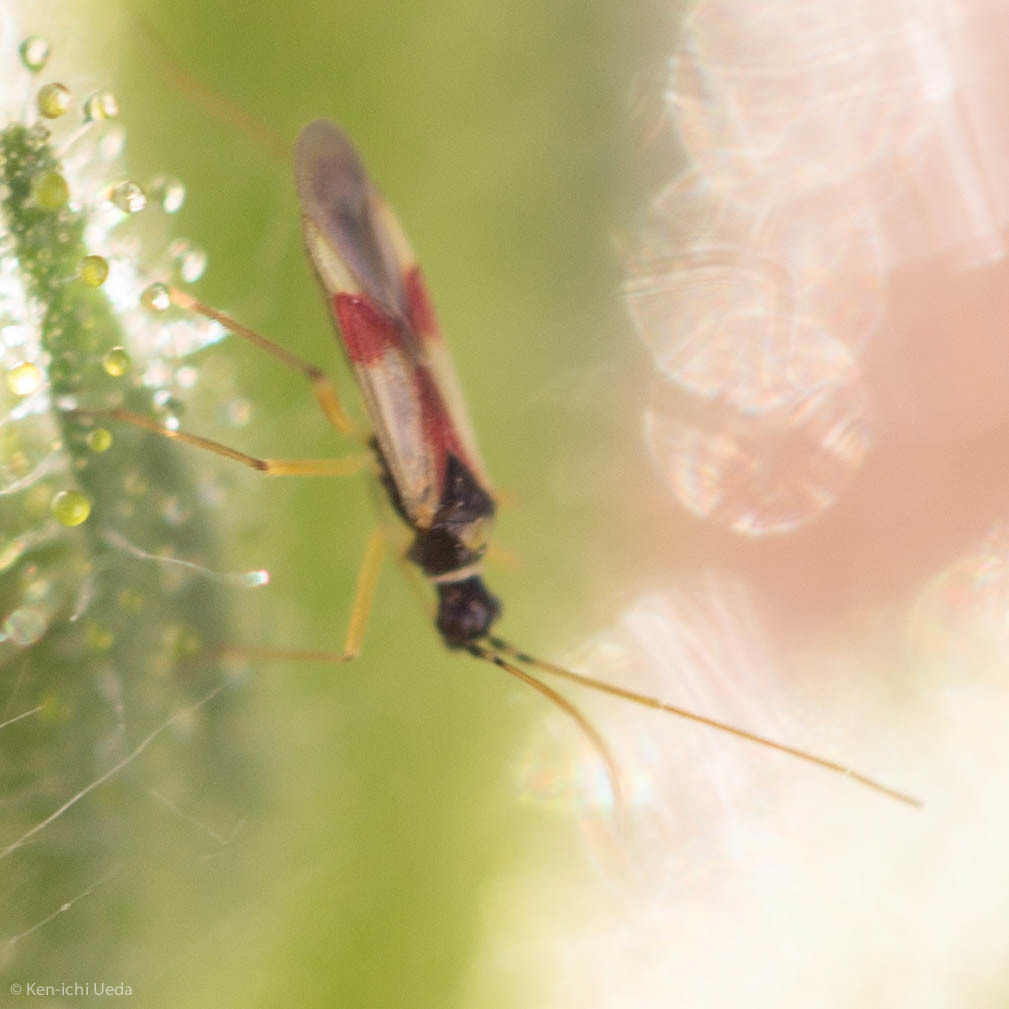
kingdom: Animalia
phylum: Arthropoda
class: Insecta
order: Hemiptera
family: Miridae
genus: Tupiocoris
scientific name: Tupiocoris californicus
